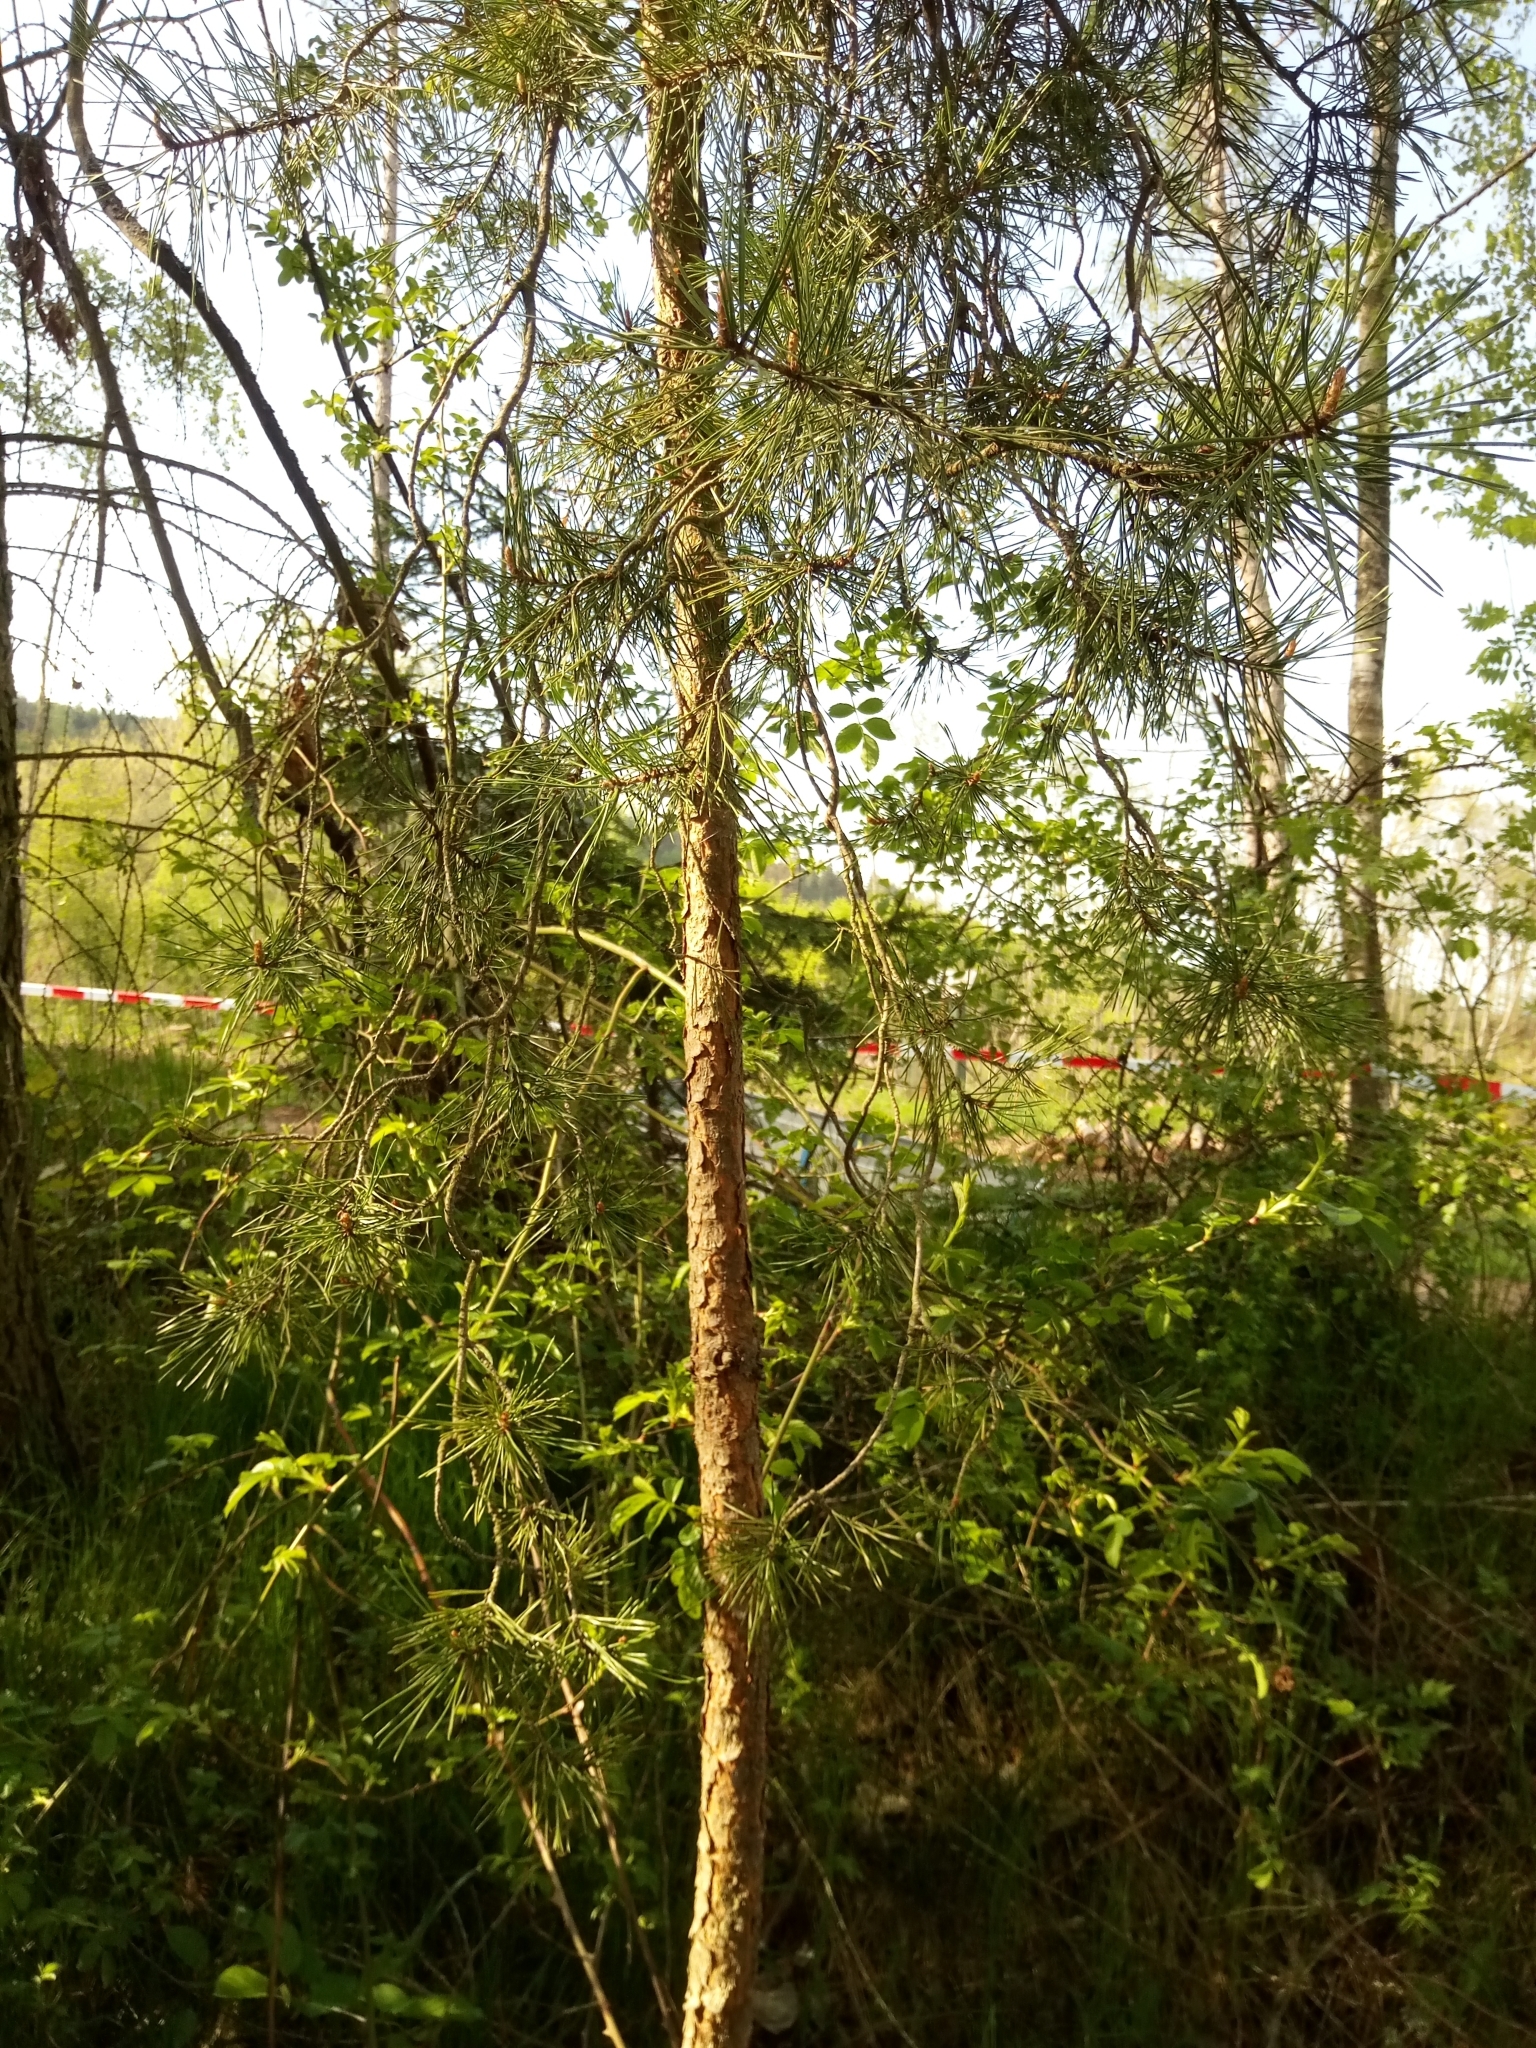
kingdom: Plantae
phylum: Tracheophyta
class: Pinopsida
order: Pinales
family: Pinaceae
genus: Pinus
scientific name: Pinus sylvestris
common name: Scots pine
